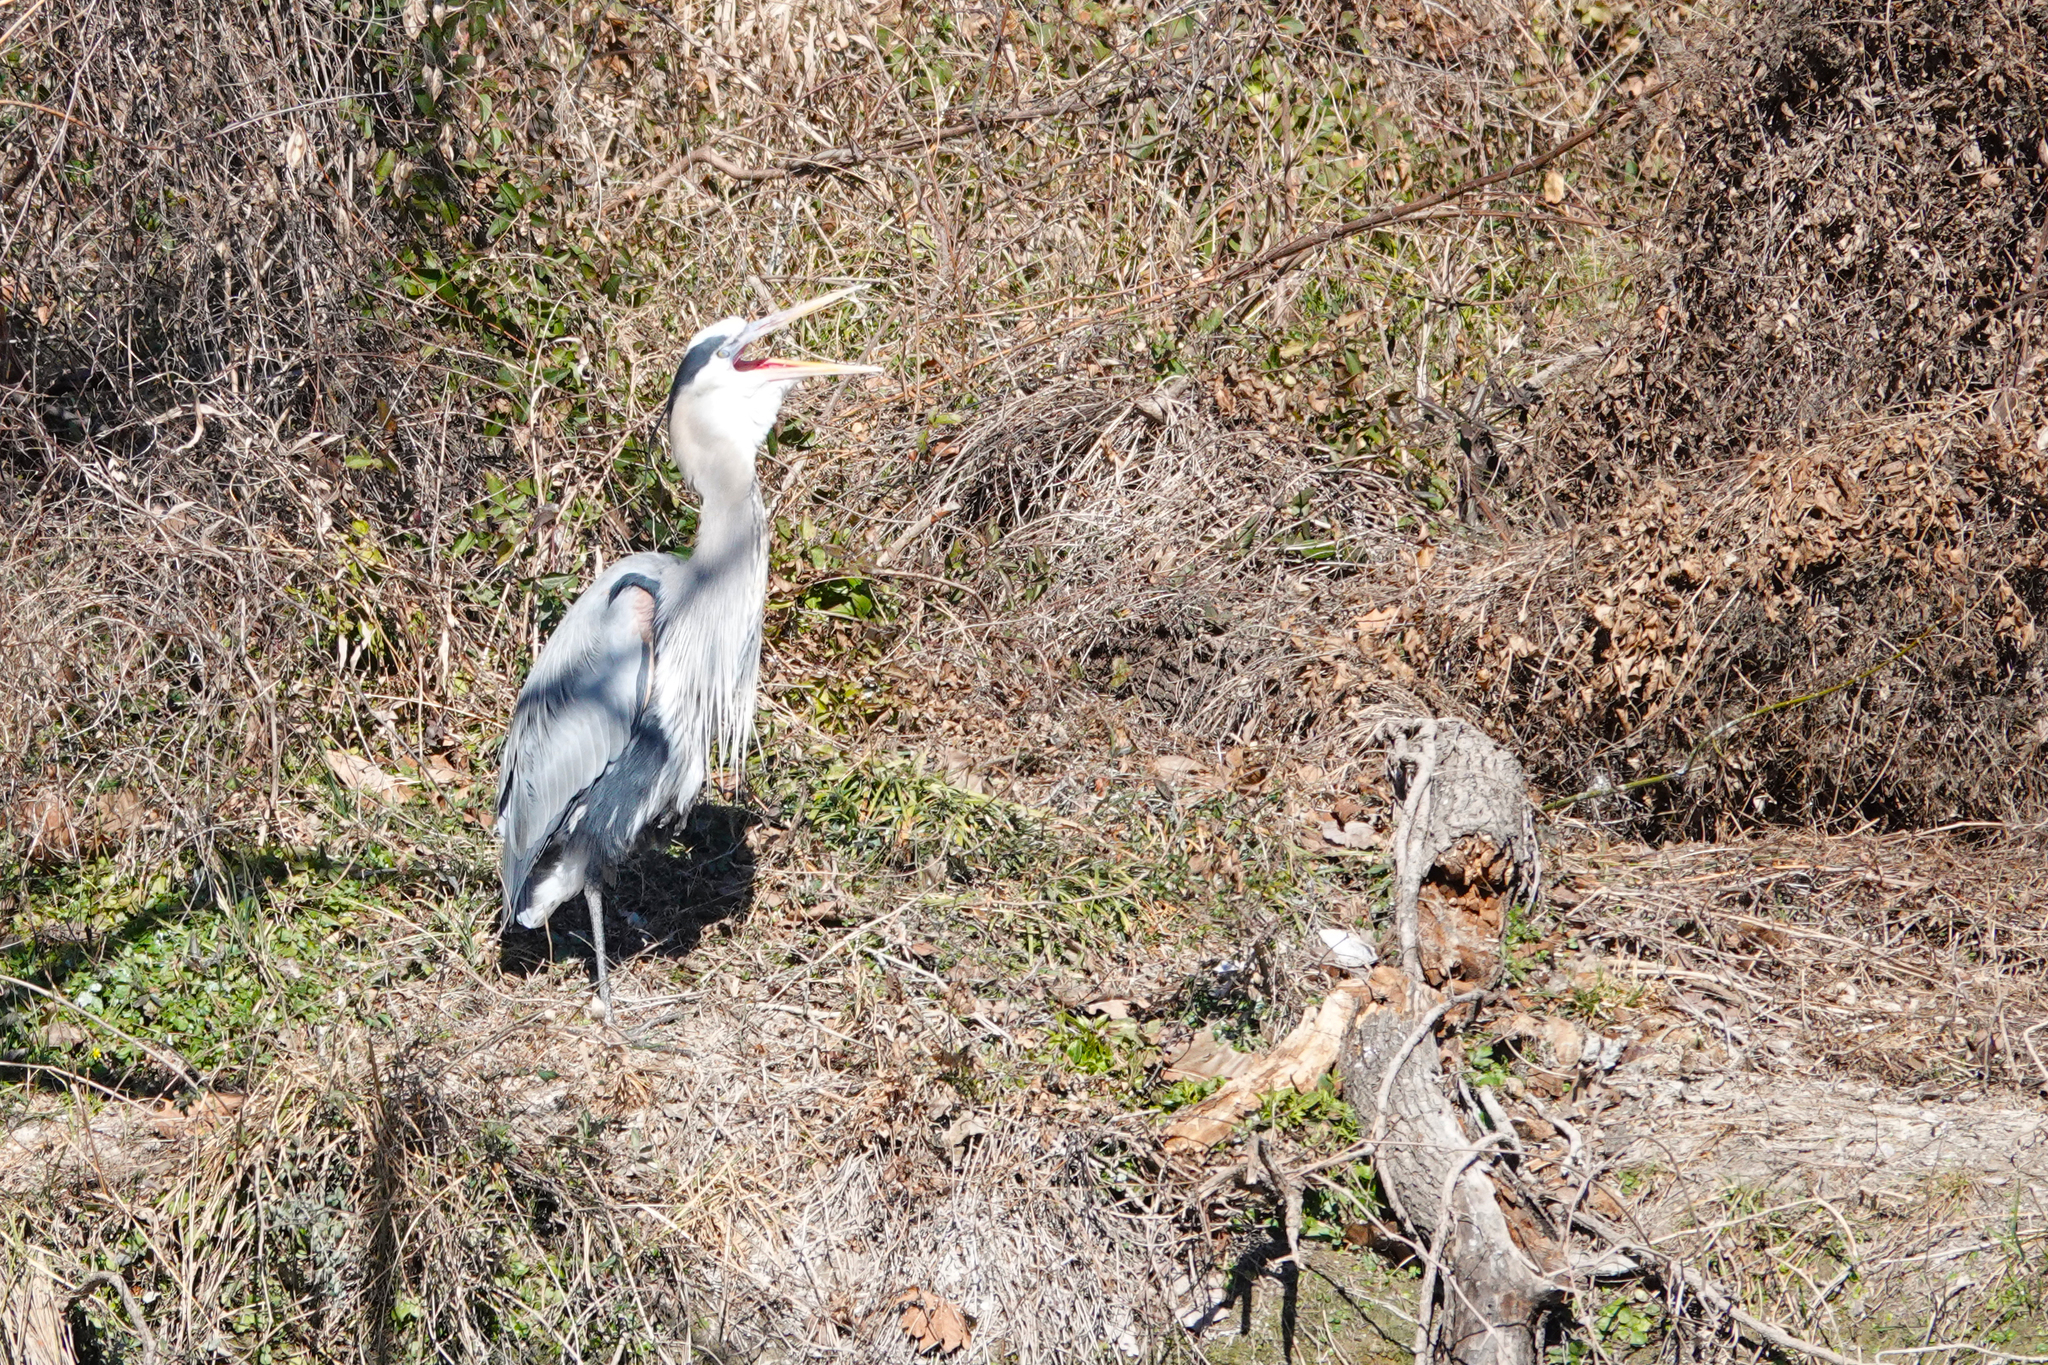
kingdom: Animalia
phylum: Chordata
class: Aves
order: Pelecaniformes
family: Ardeidae
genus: Ardea
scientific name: Ardea herodias
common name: Great blue heron
